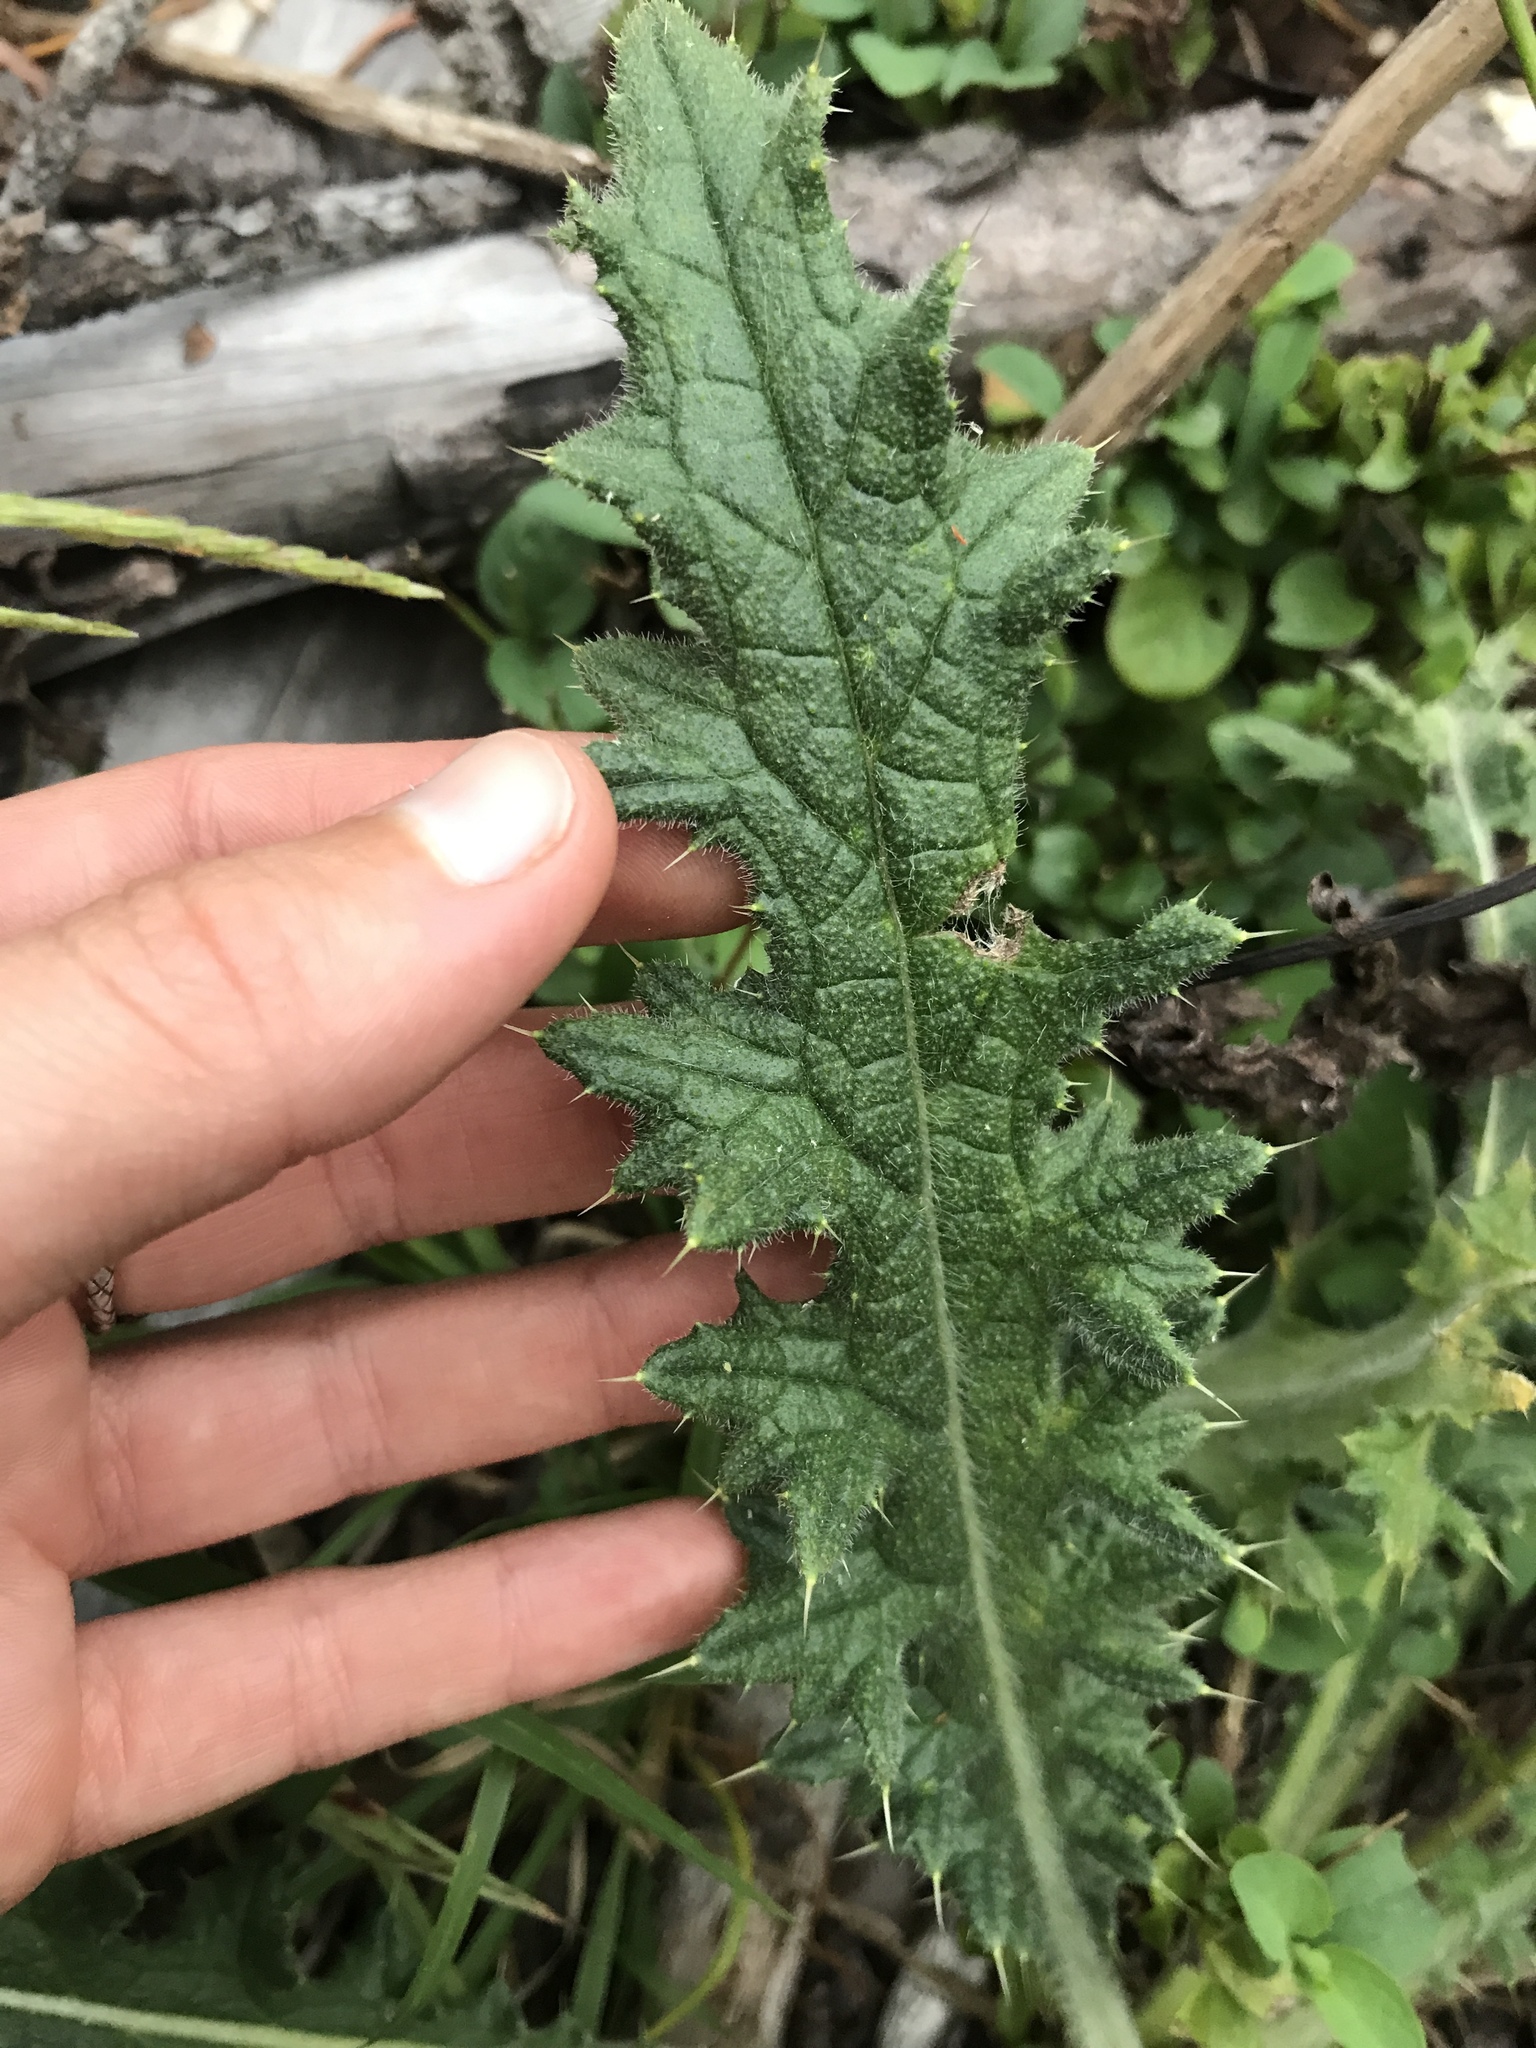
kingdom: Plantae
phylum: Tracheophyta
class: Magnoliopsida
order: Asterales
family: Asteraceae
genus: Cirsium
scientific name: Cirsium vulgare
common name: Bull thistle
